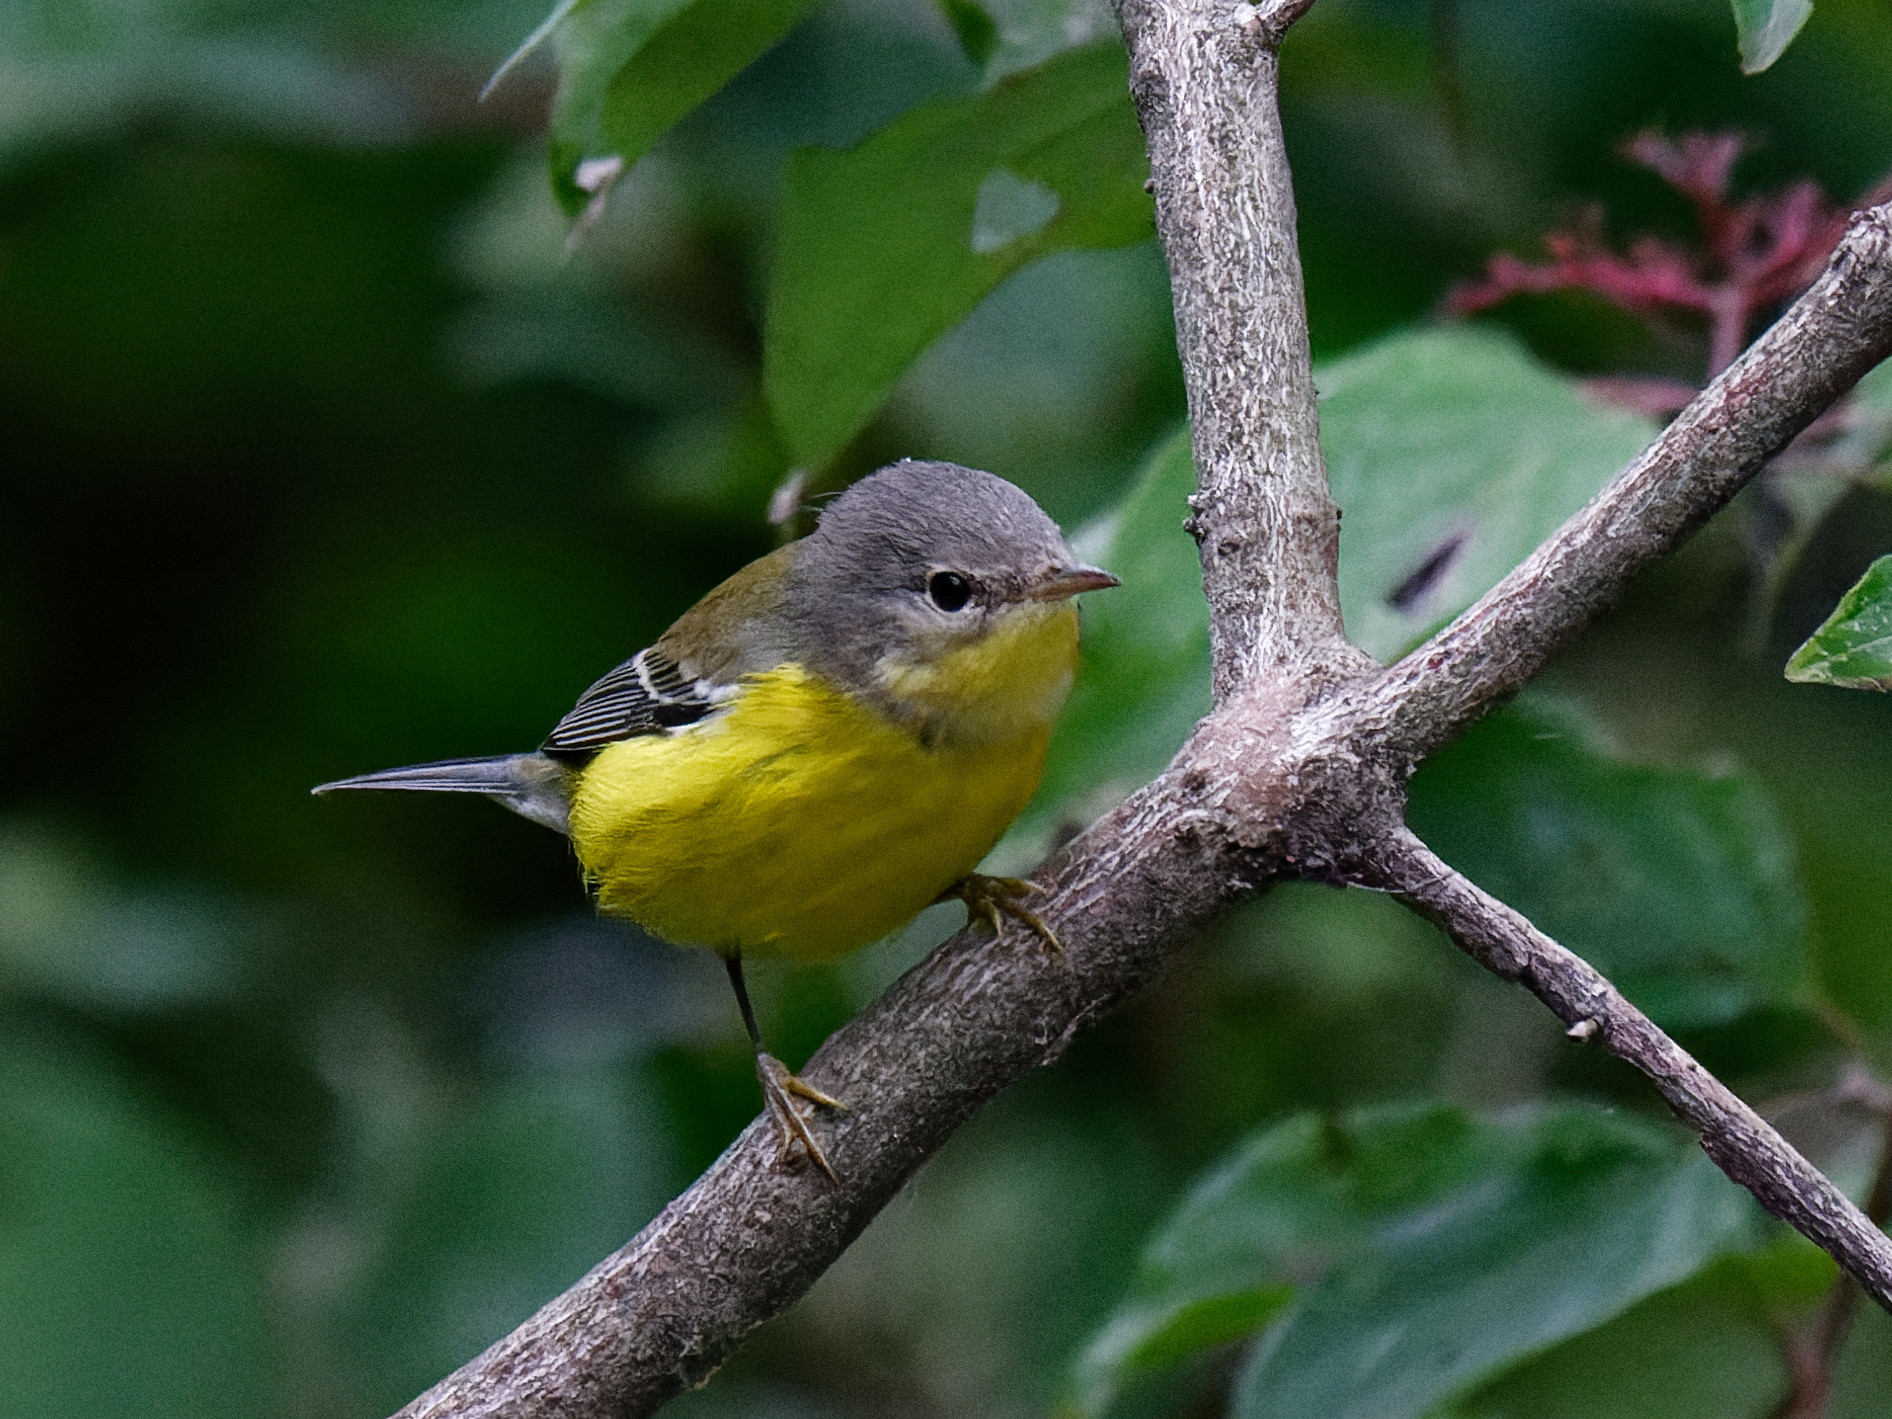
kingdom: Animalia
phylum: Chordata
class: Aves
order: Passeriformes
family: Parulidae
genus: Setophaga
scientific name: Setophaga magnolia
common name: Magnolia warbler
